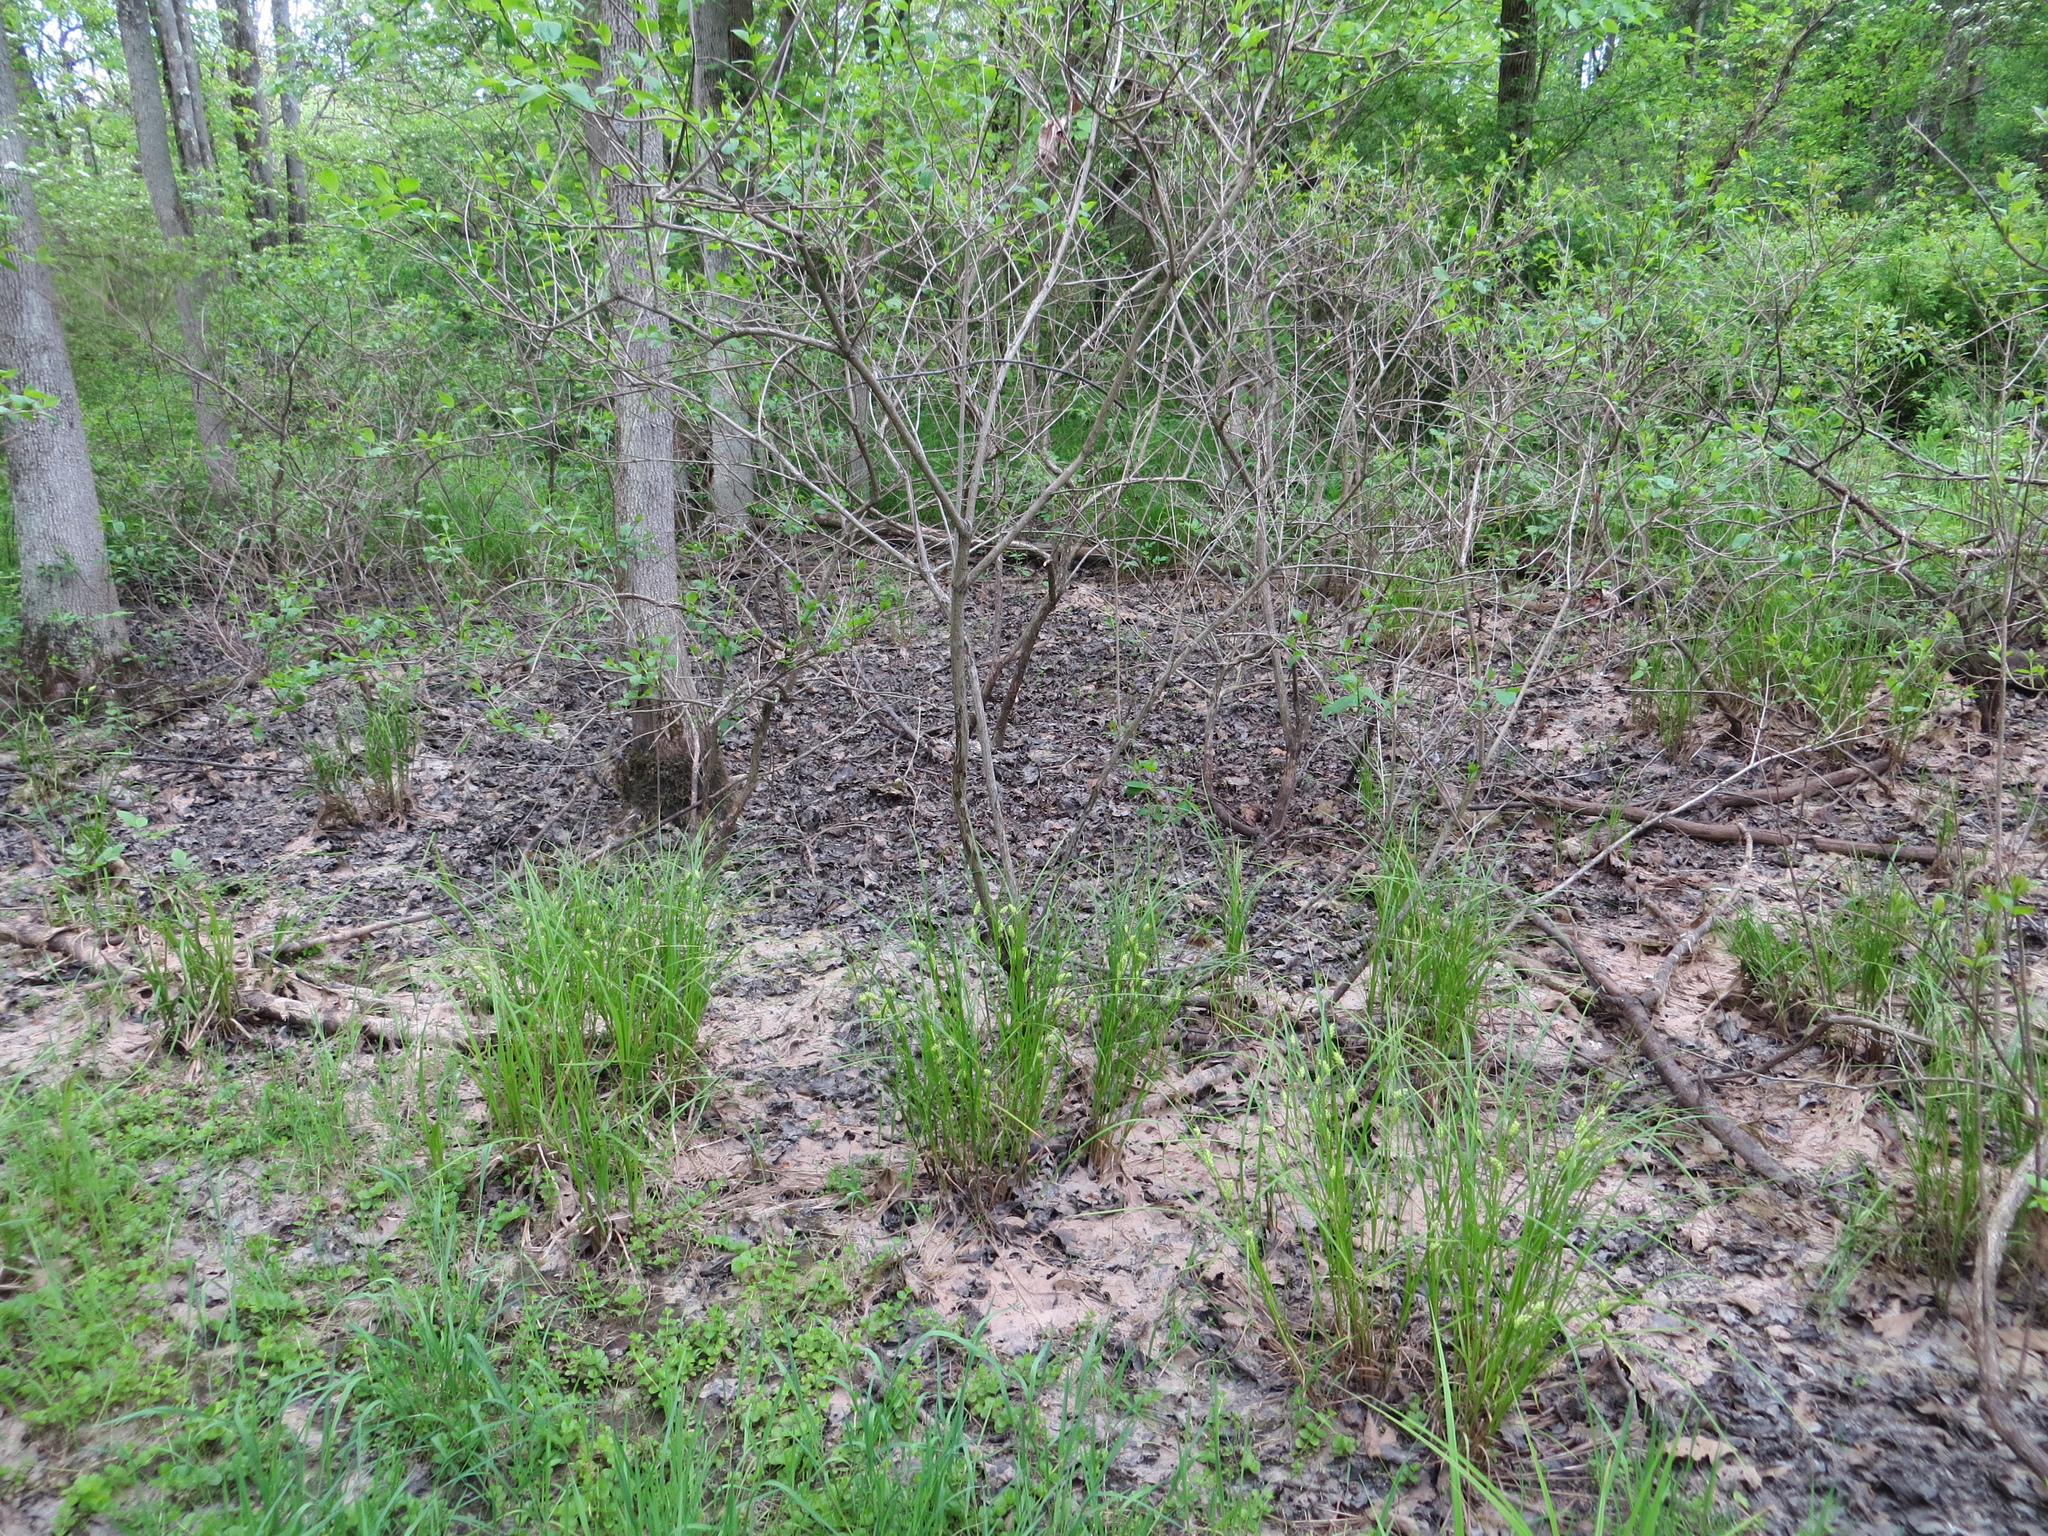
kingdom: Plantae
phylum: Tracheophyta
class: Liliopsida
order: Poales
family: Cyperaceae
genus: Carex
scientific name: Carex tuckermanii
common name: Tuckerman's sedge
